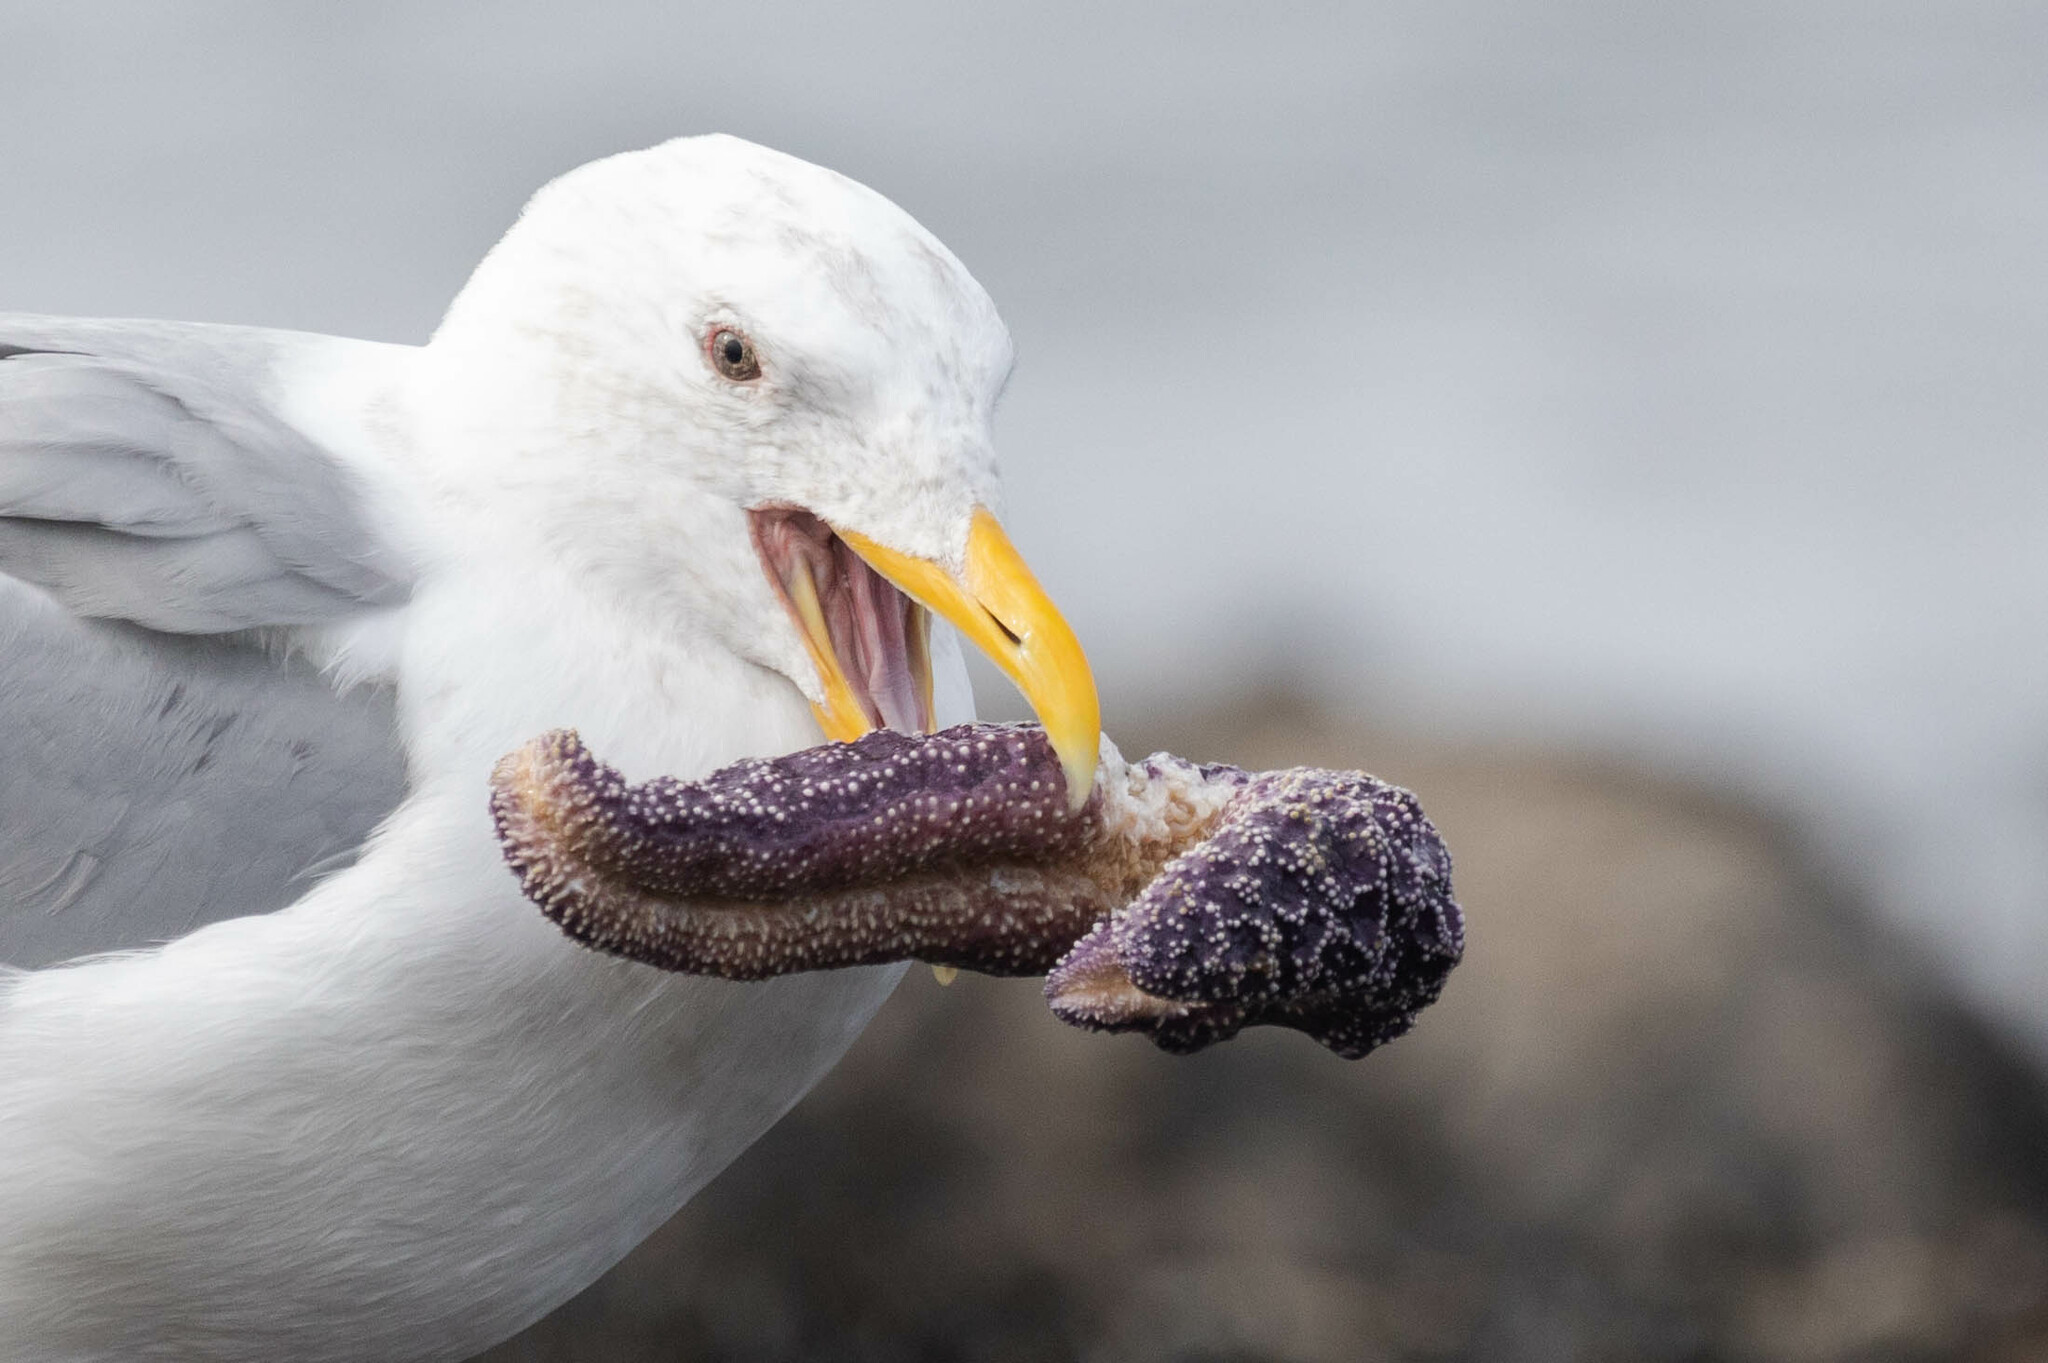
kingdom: Animalia
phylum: Echinodermata
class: Asteroidea
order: Forcipulatida
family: Asteriidae
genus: Pisaster
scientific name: Pisaster ochraceus
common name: Ochre stars
